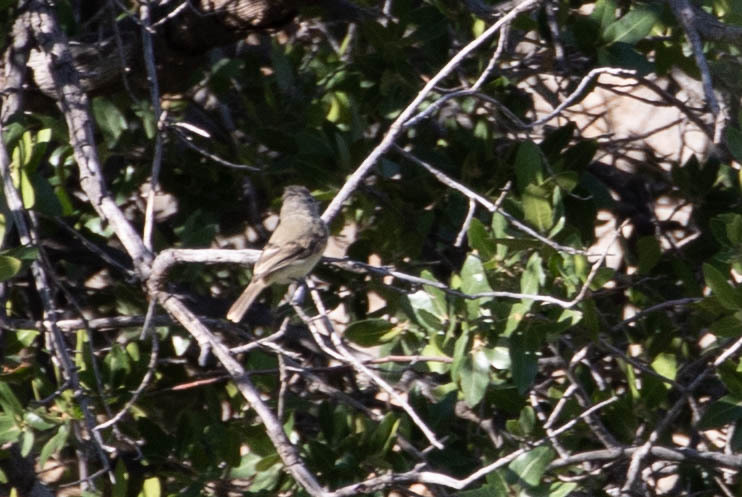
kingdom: Animalia
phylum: Chordata
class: Aves
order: Passeriformes
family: Tyrannidae
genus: Camptostoma
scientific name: Camptostoma imberbe
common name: Northern beardless-tyrannulet
